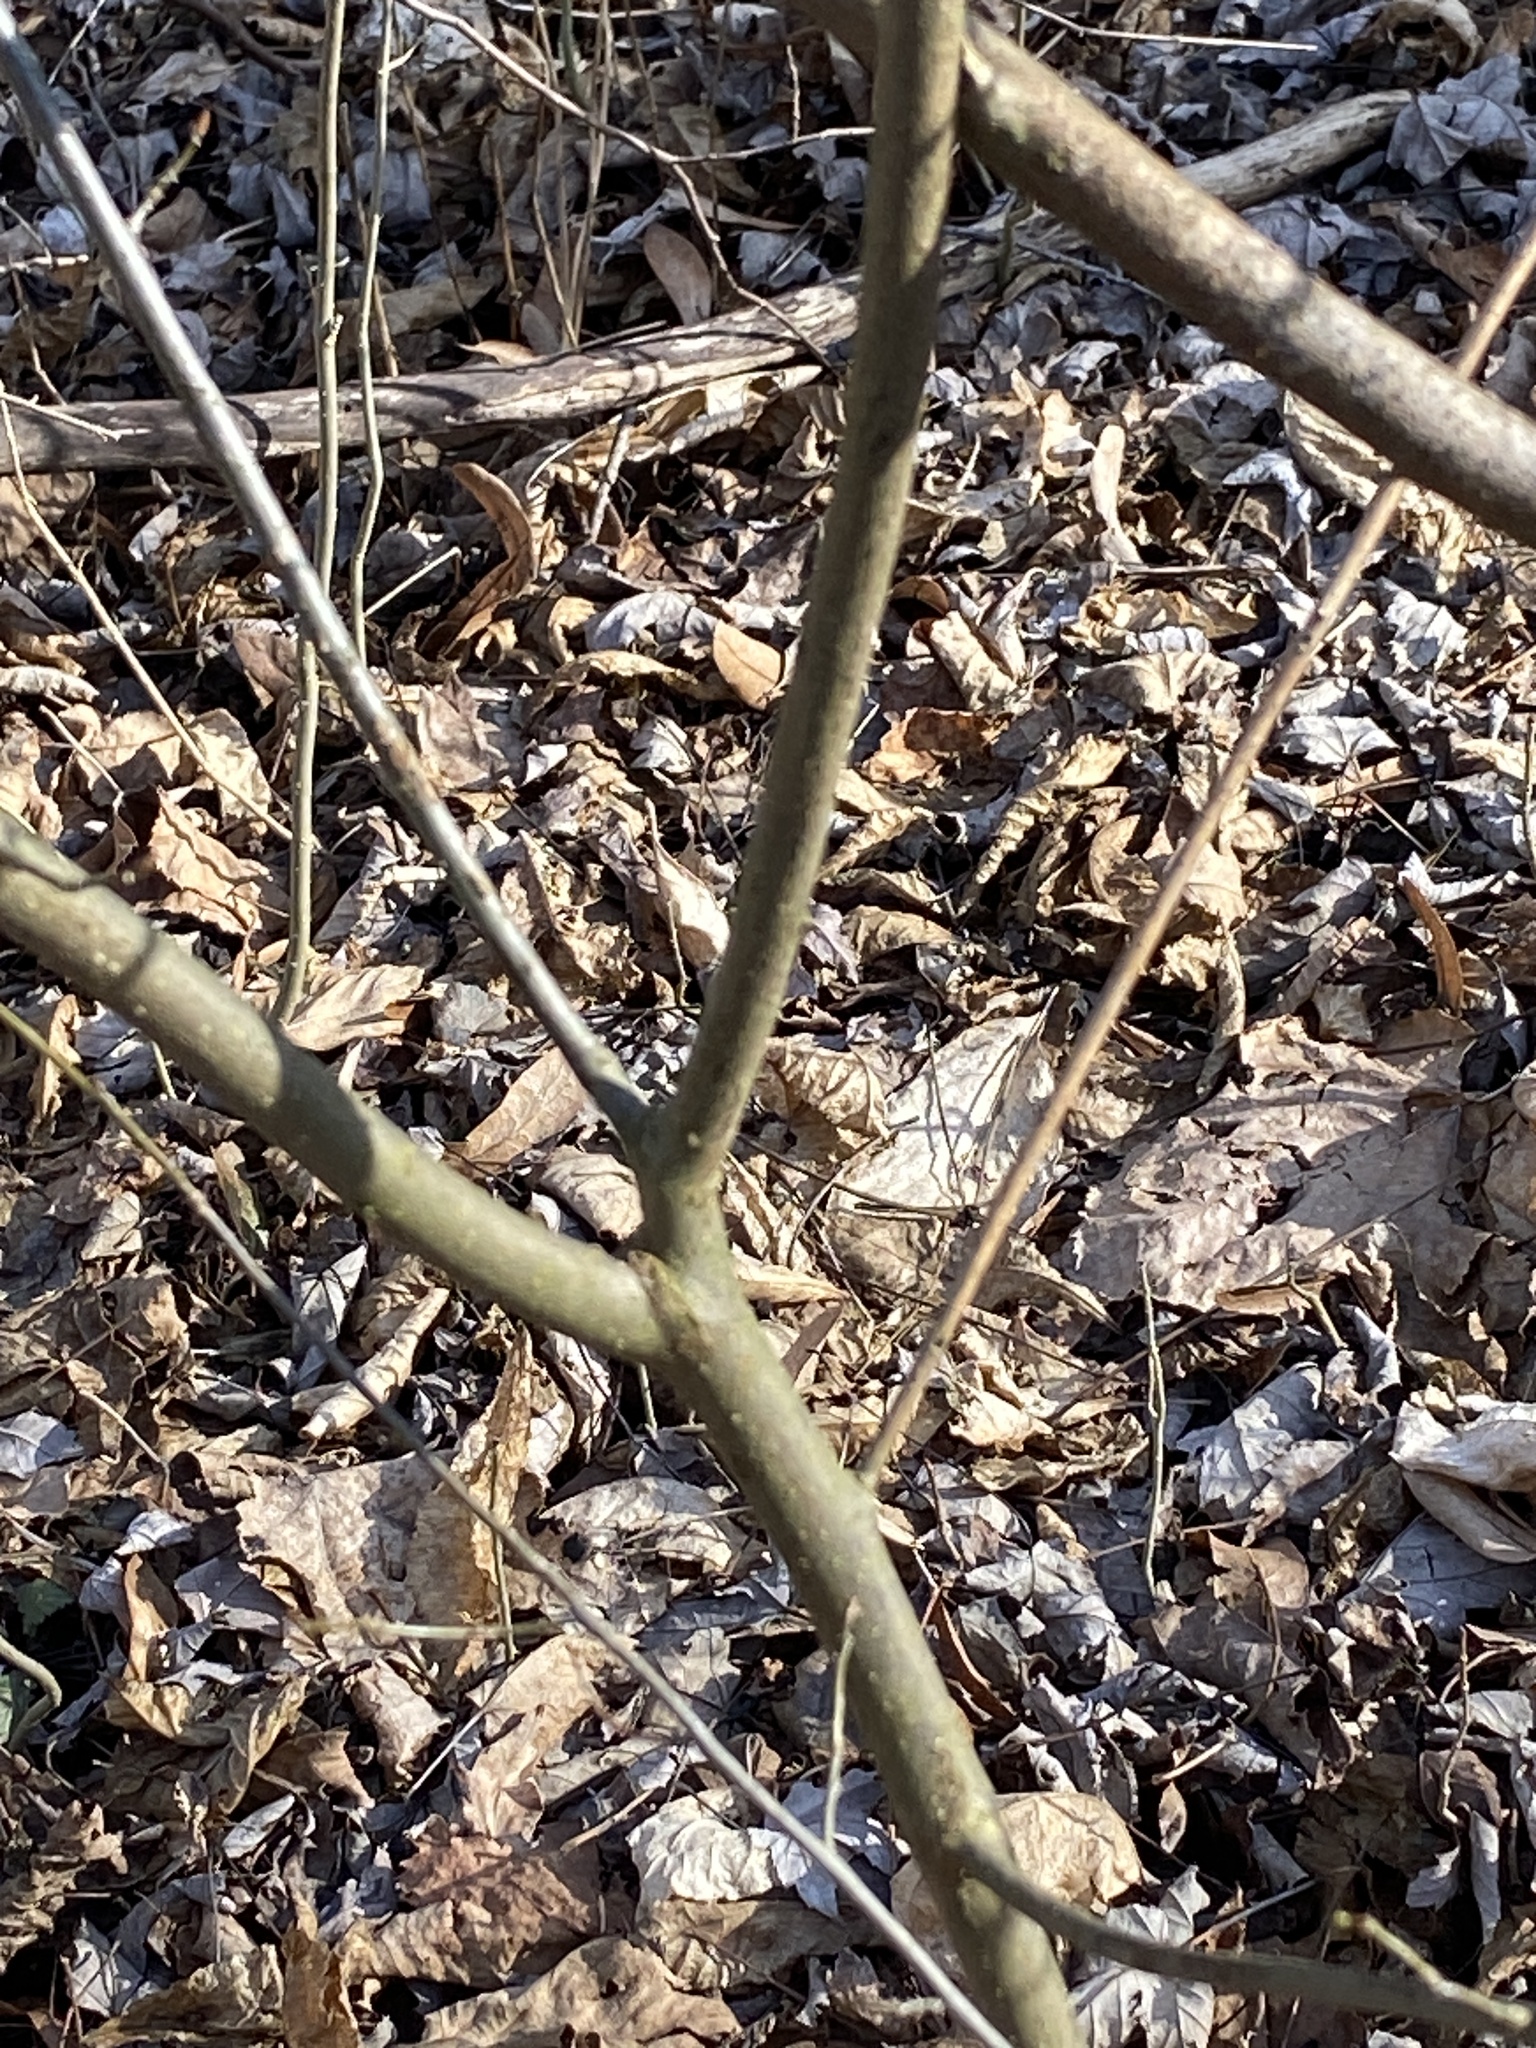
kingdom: Plantae
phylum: Tracheophyta
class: Magnoliopsida
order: Laurales
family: Lauraceae
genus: Lindera
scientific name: Lindera benzoin
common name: Spicebush
